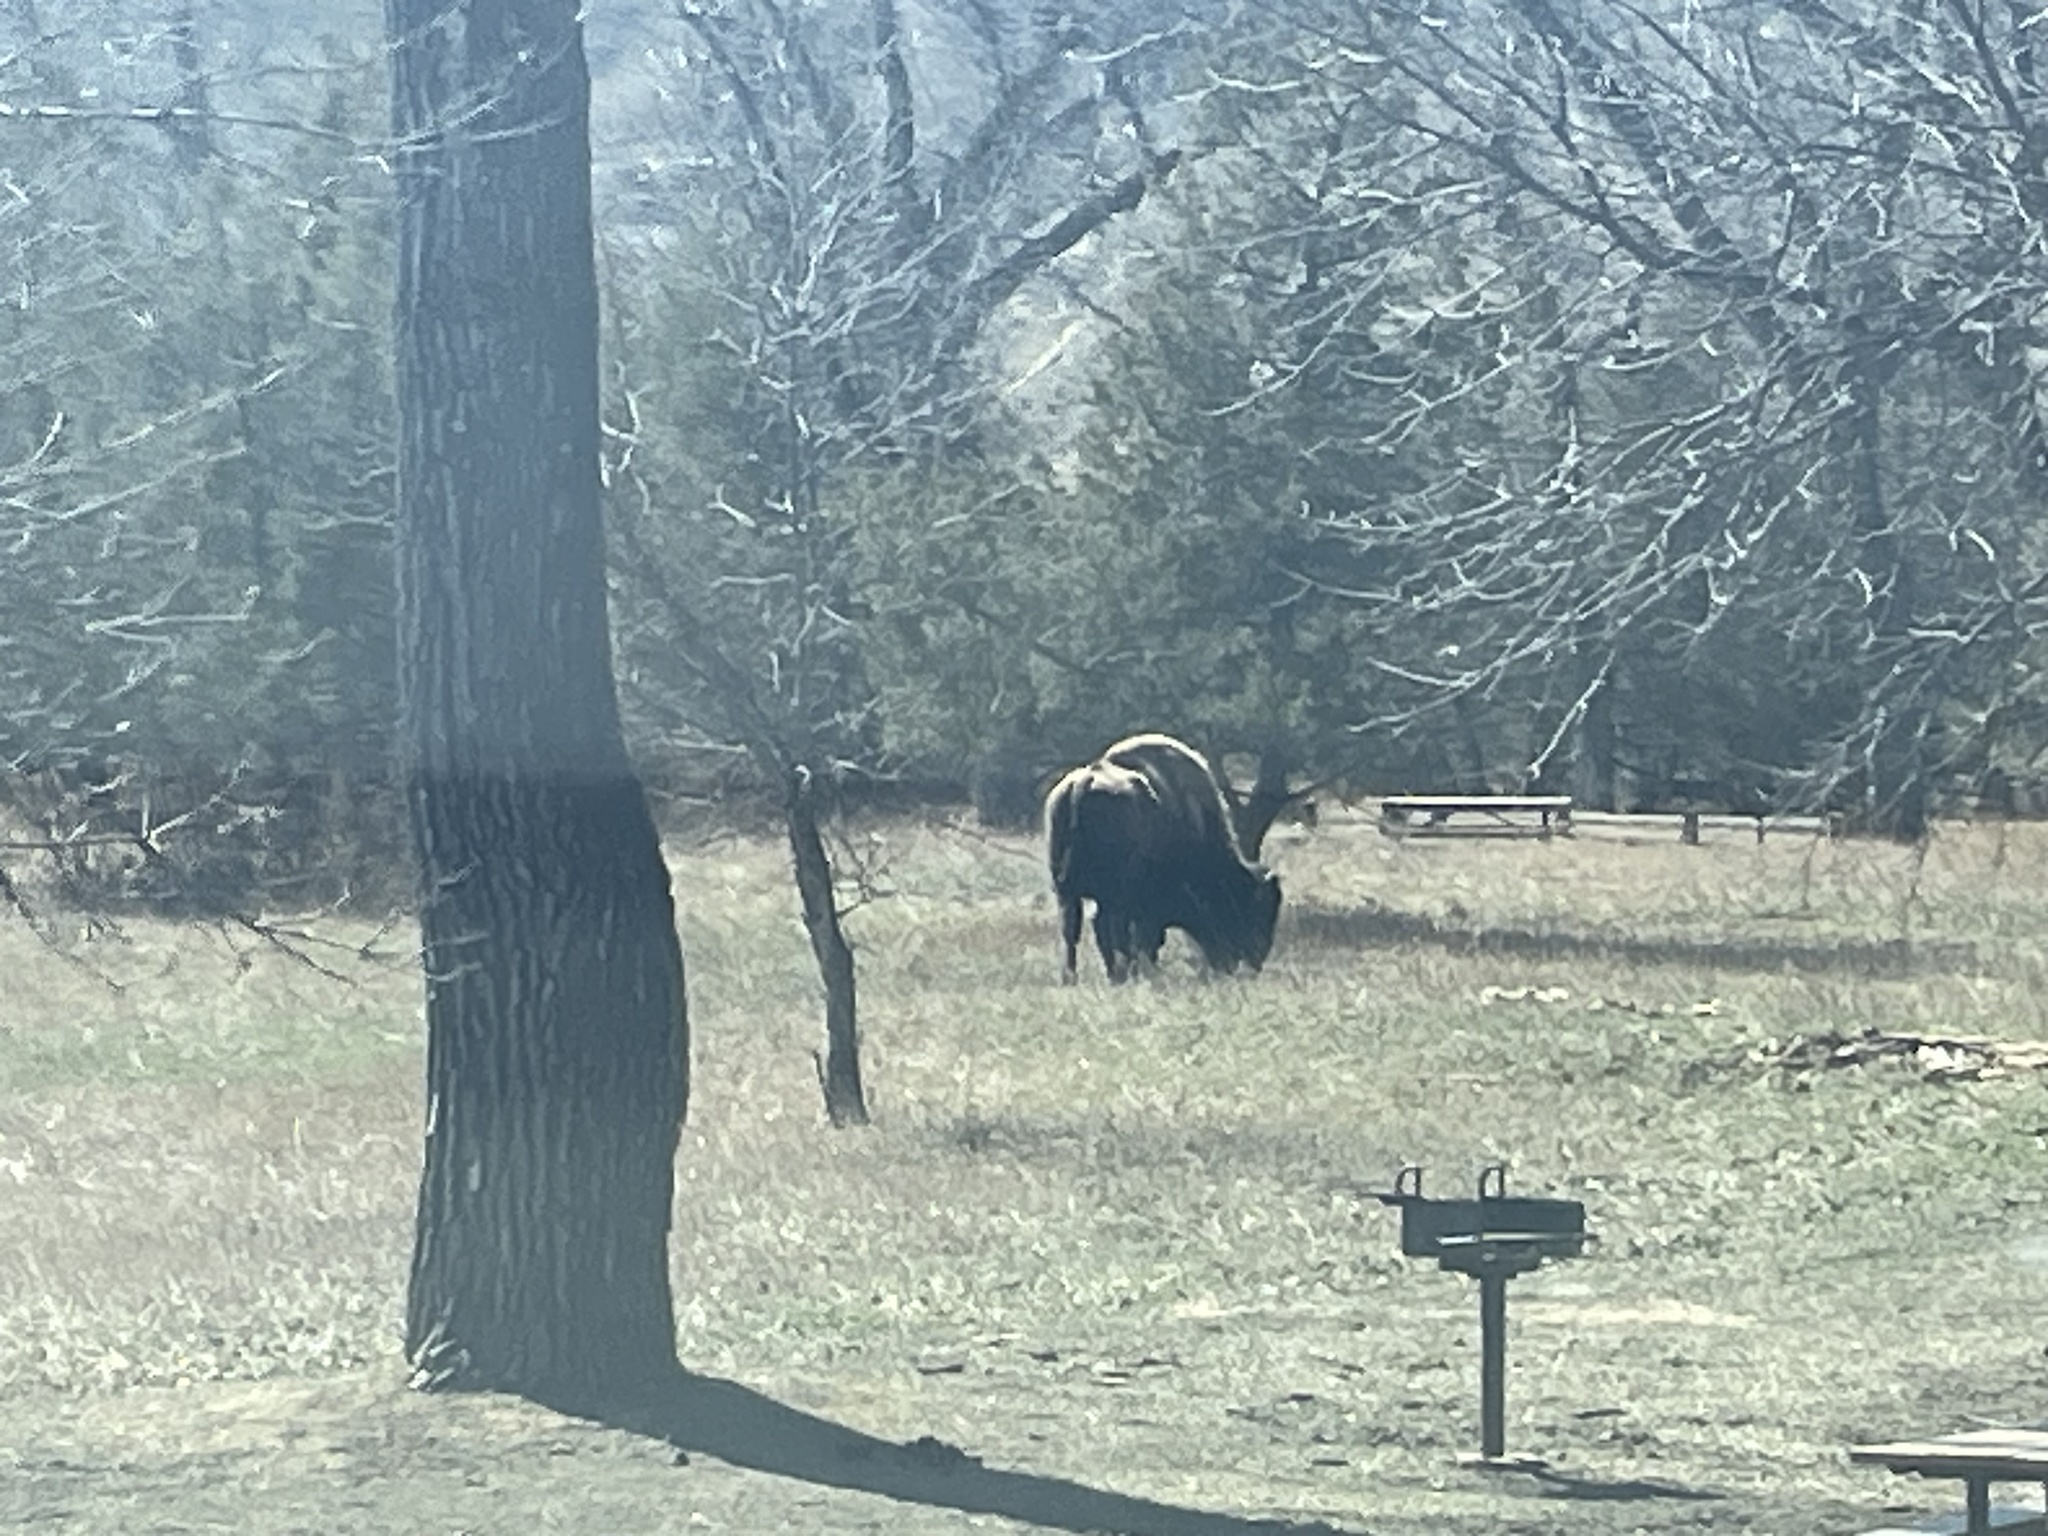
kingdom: Animalia
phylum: Chordata
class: Mammalia
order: Artiodactyla
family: Bovidae
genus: Bison
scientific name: Bison bison
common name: American bison
